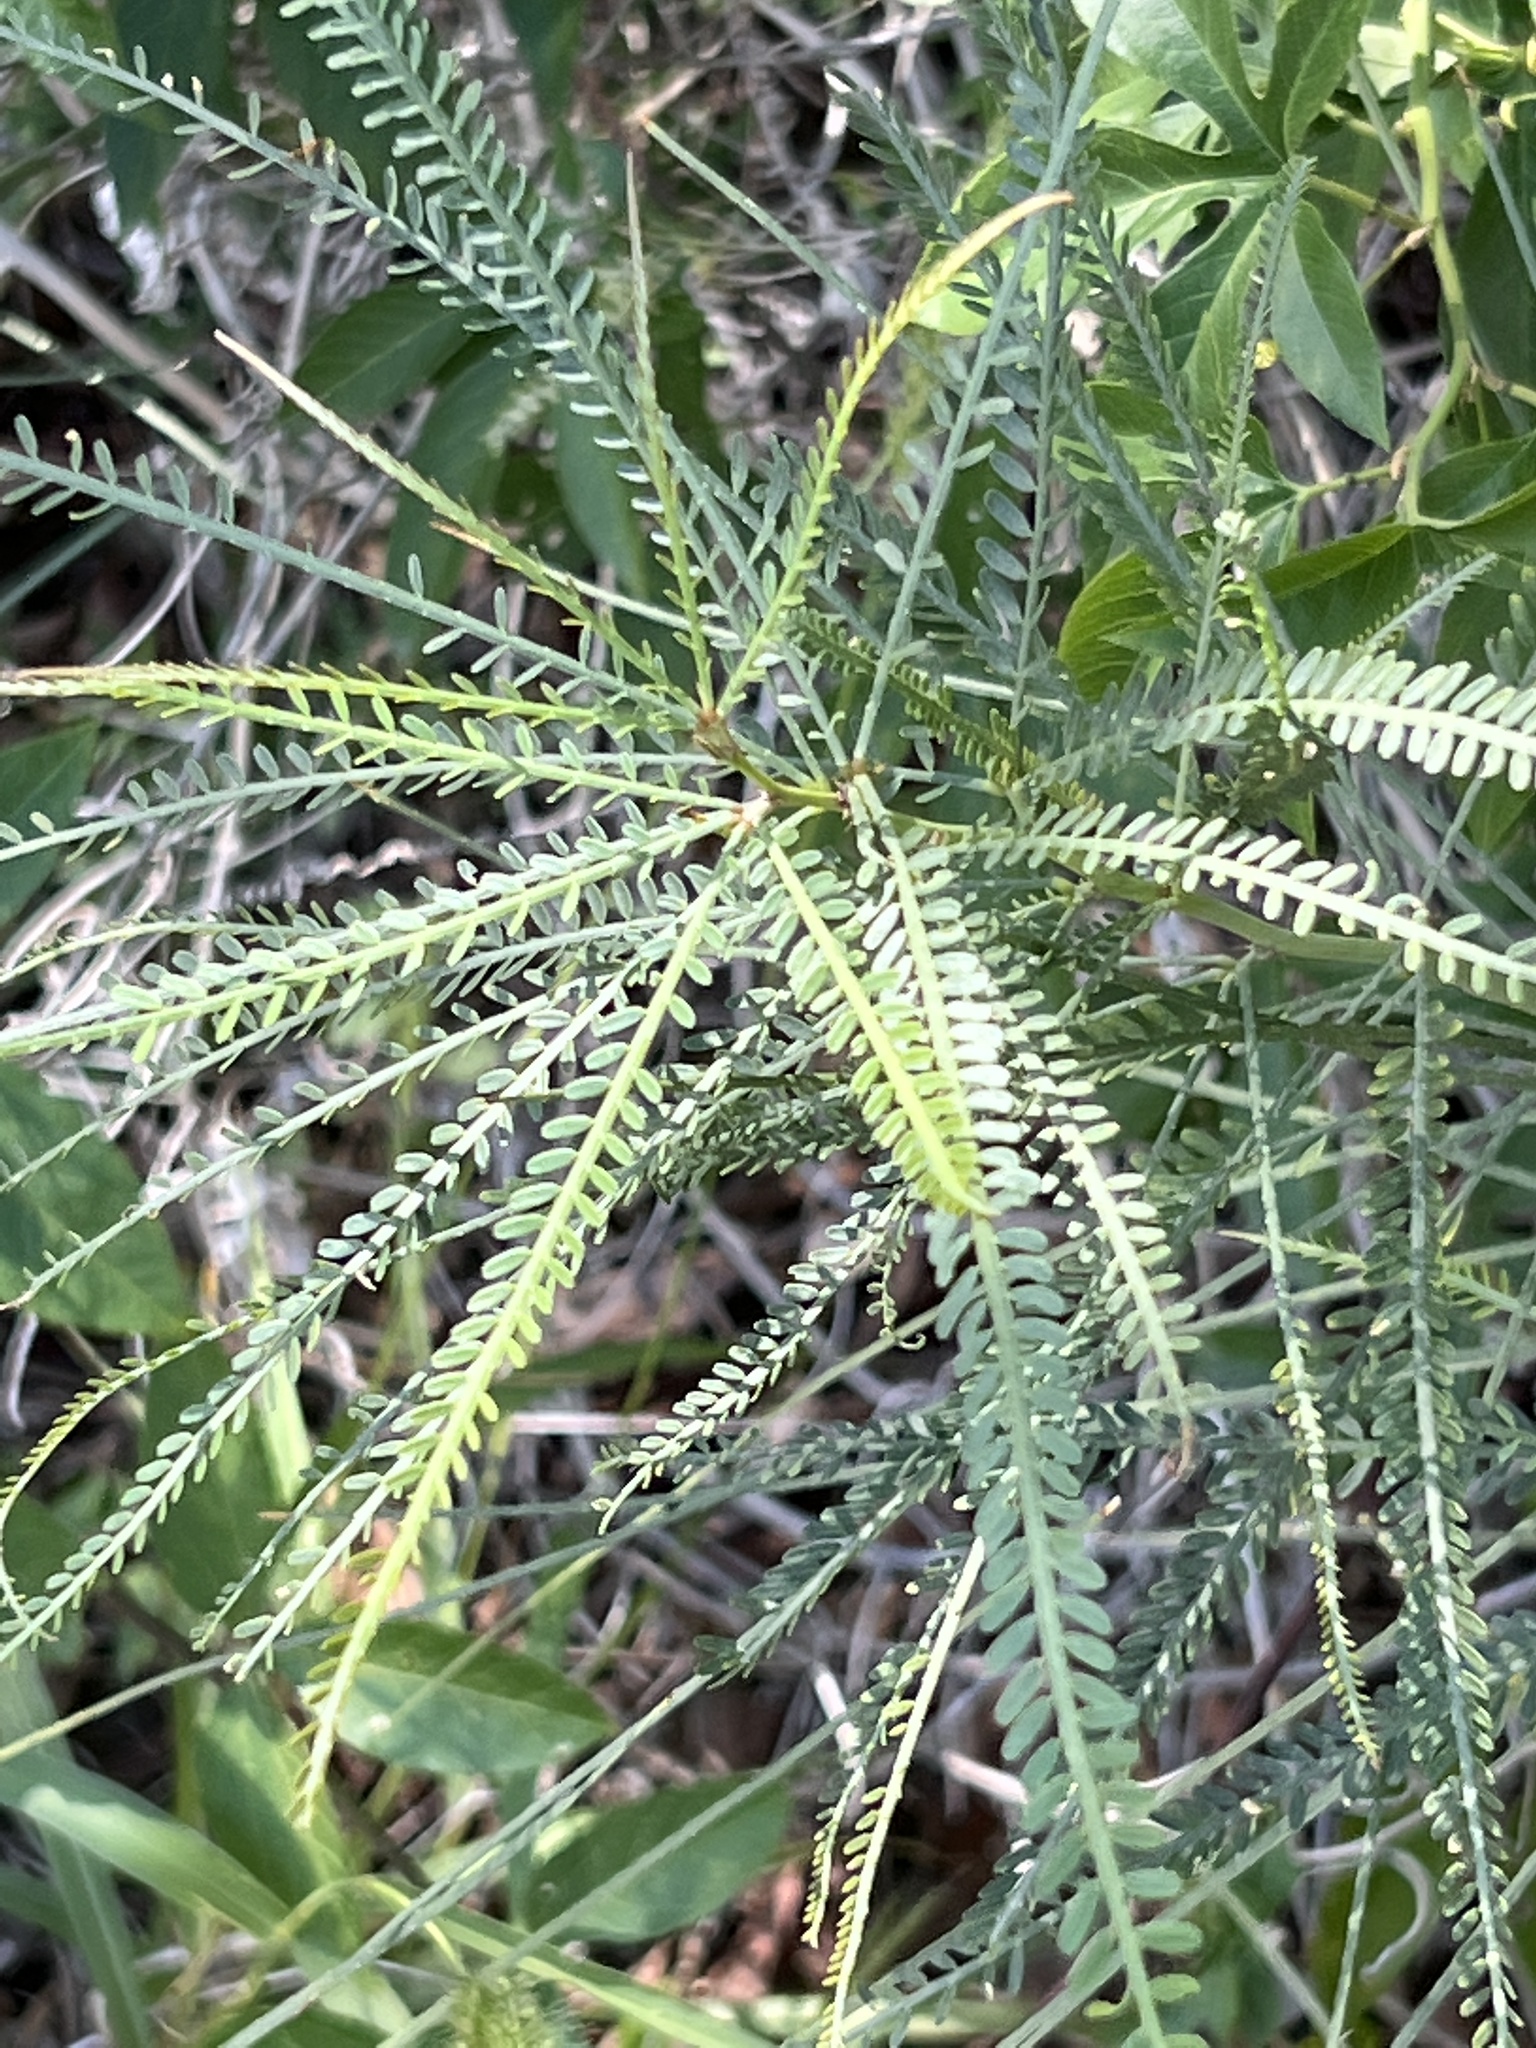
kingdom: Plantae
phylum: Tracheophyta
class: Magnoliopsida
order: Fabales
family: Fabaceae
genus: Parkinsonia
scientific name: Parkinsonia aculeata
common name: Jerusalem thorn
